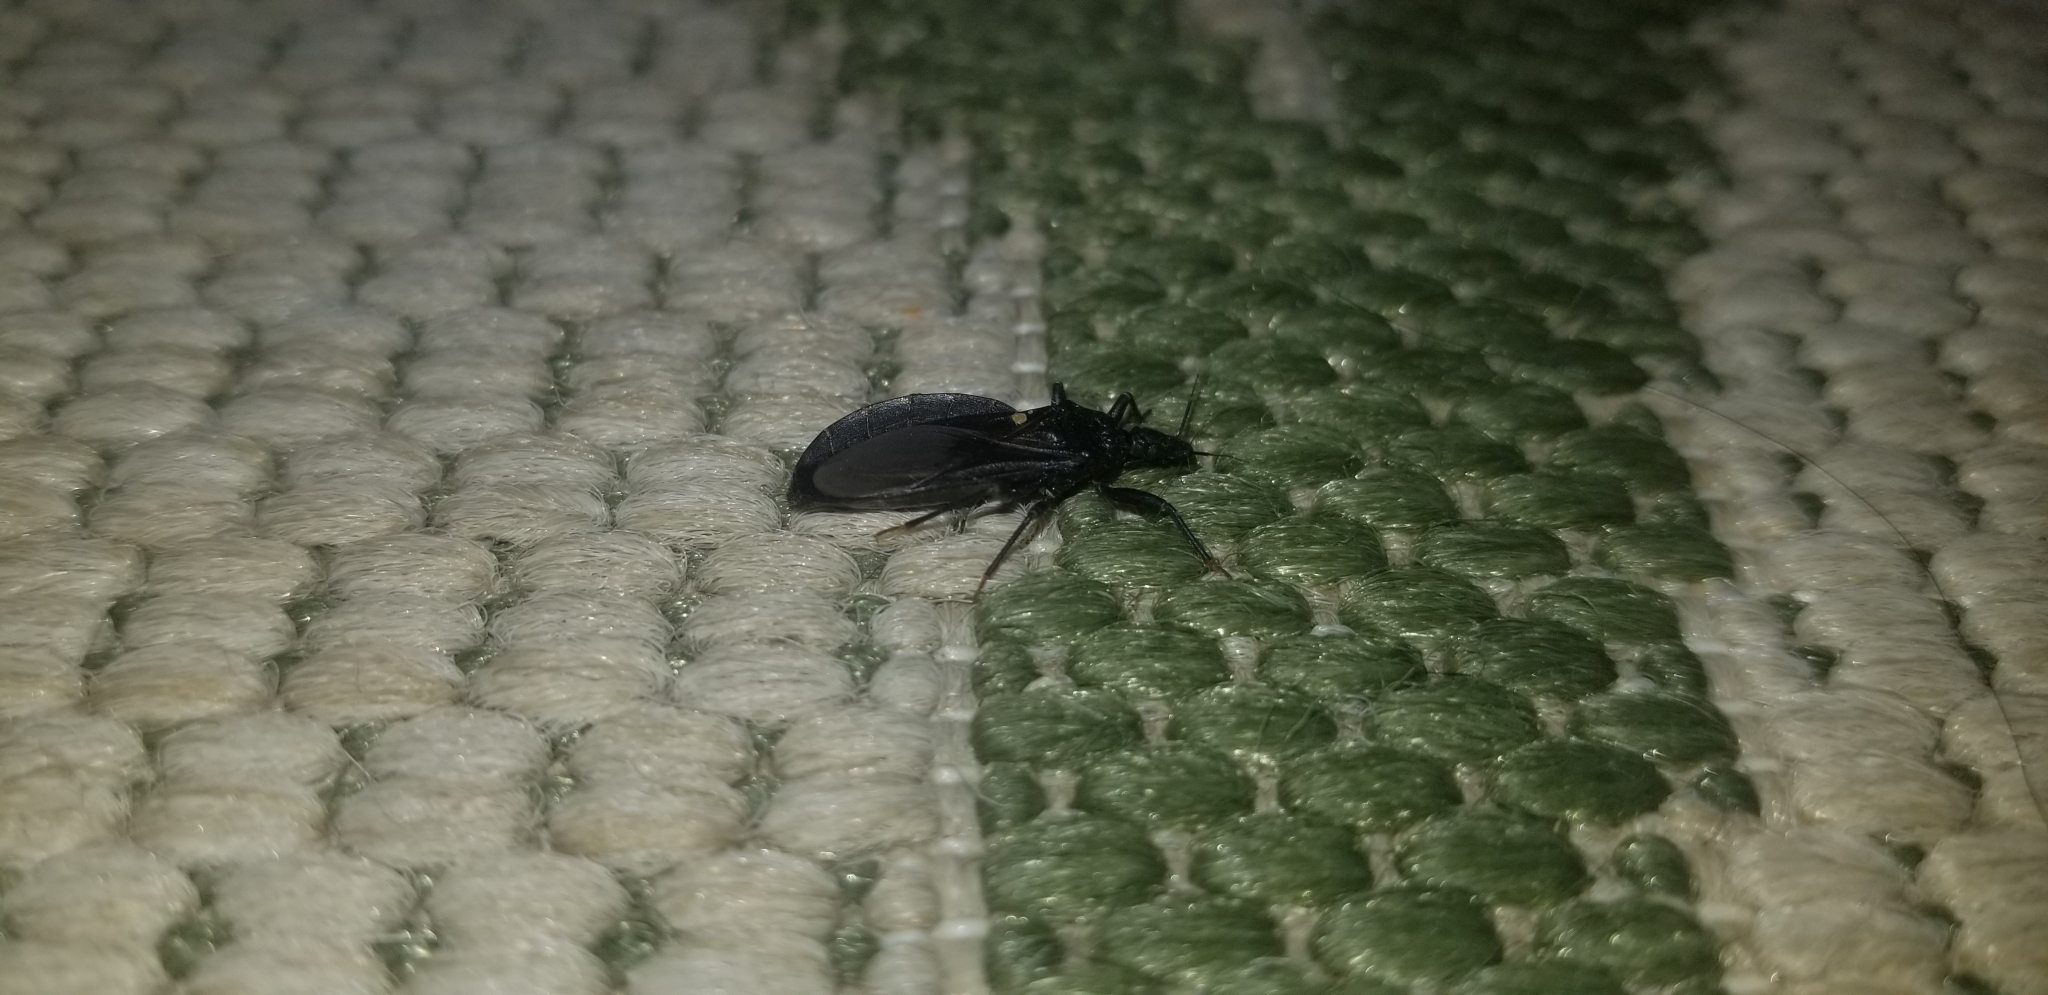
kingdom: Animalia
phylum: Arthropoda
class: Insecta
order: Hemiptera
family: Reduviidae
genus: Triatoma
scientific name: Triatoma protracta
